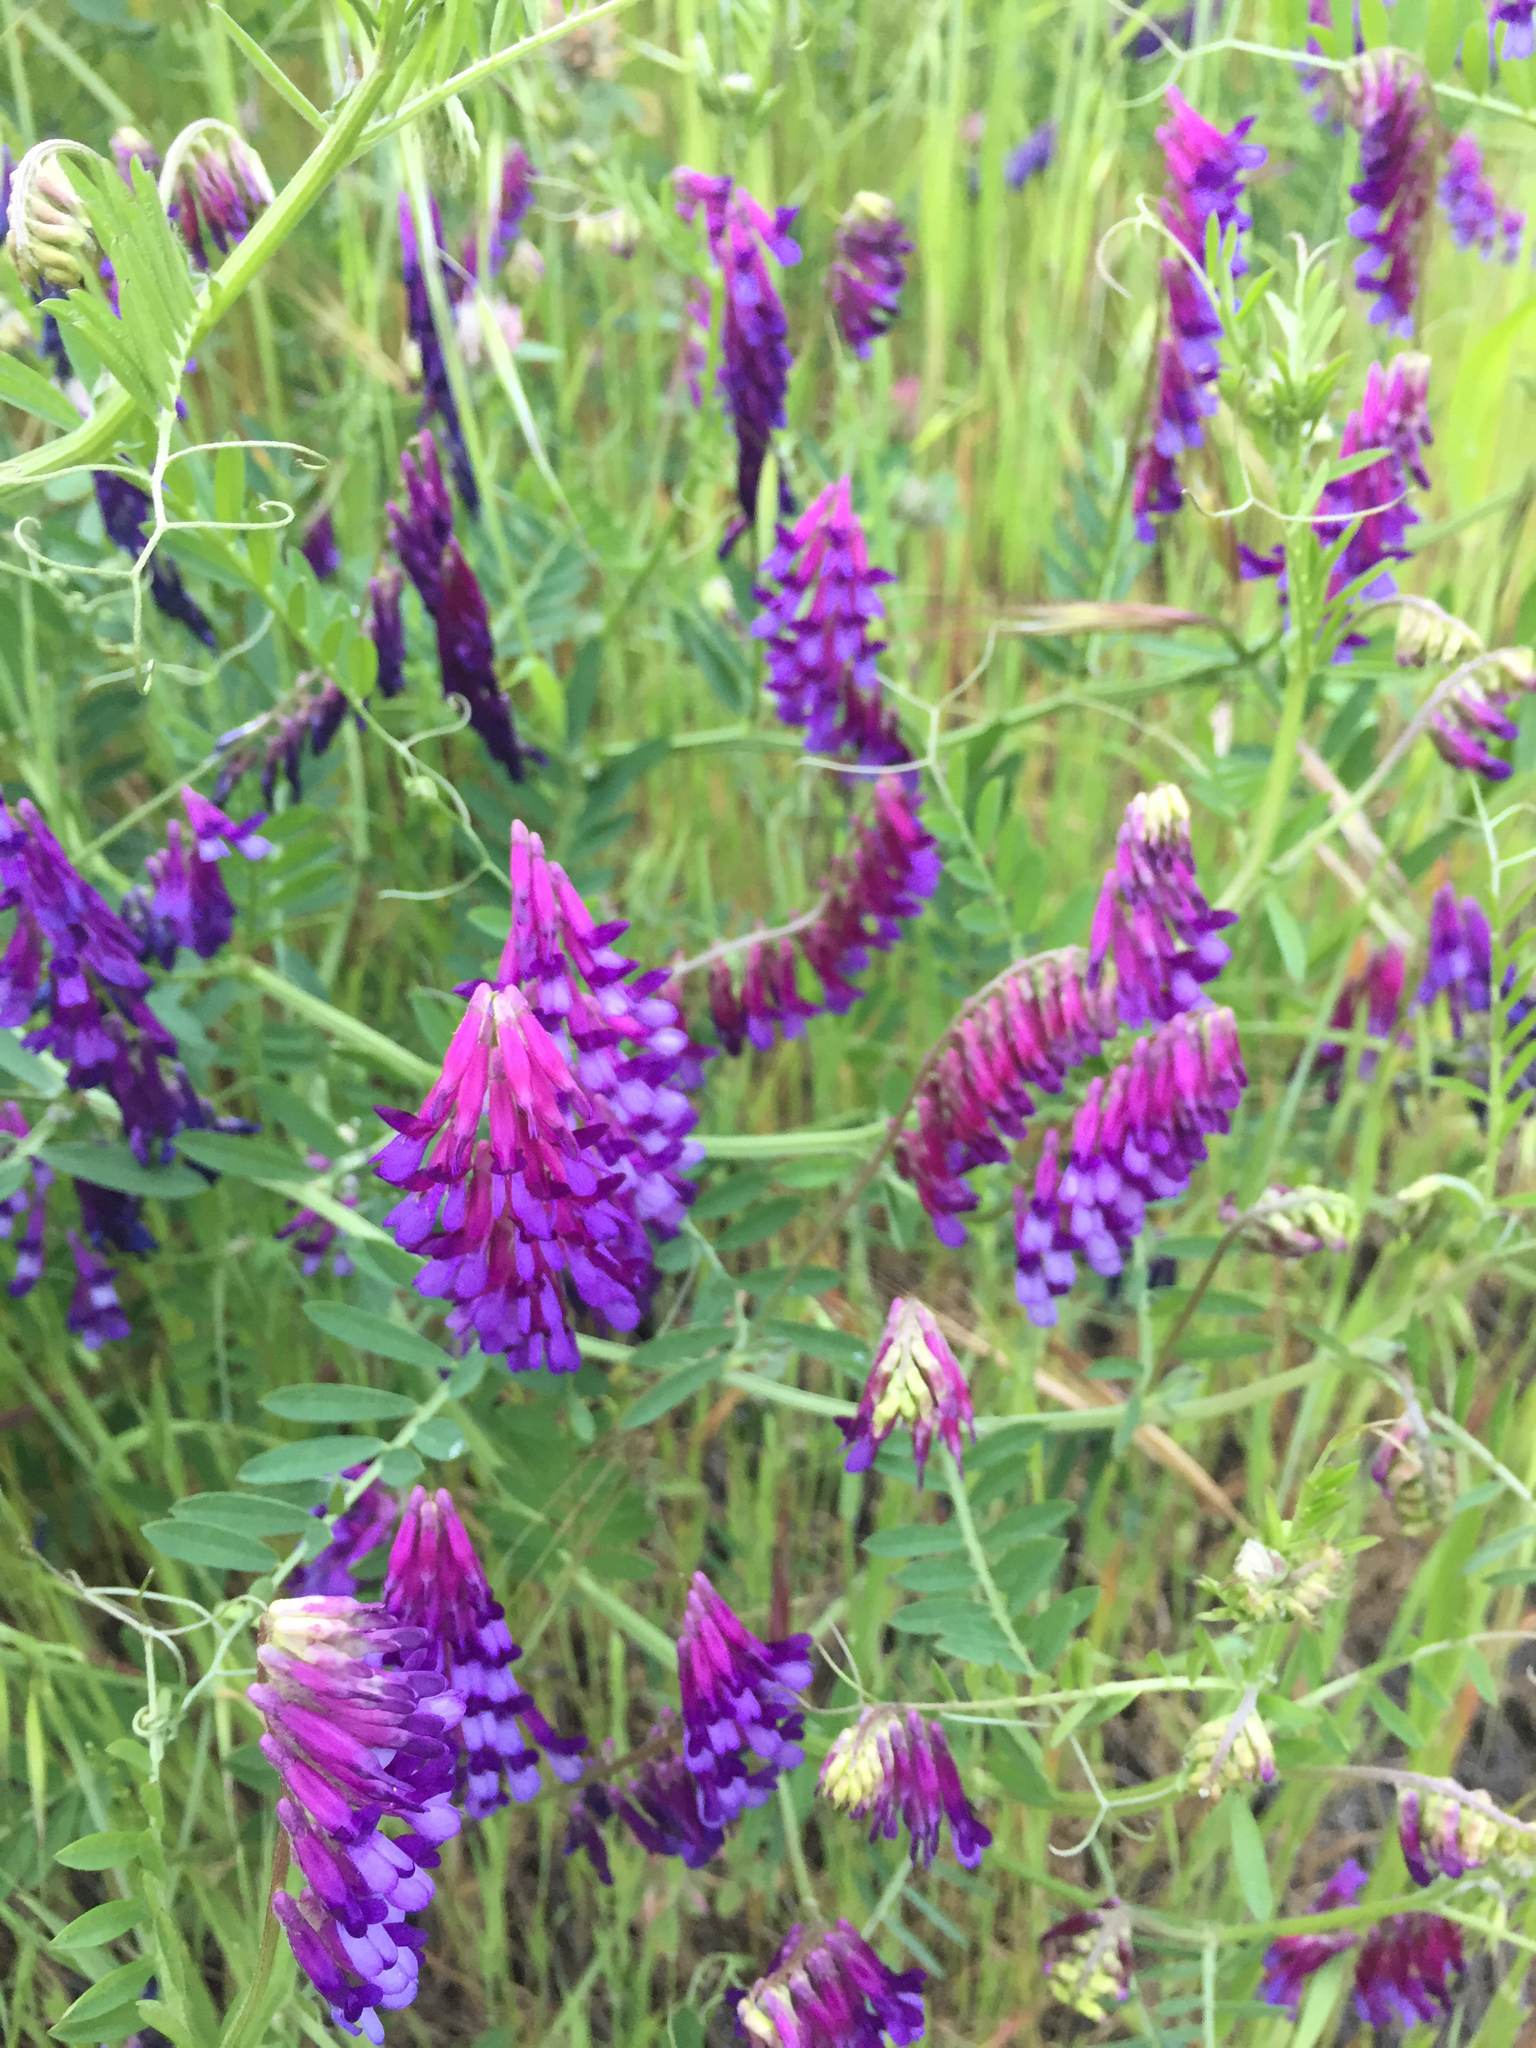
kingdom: Plantae
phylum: Tracheophyta
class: Magnoliopsida
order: Fabales
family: Fabaceae
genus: Vicia
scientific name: Vicia villosa
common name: Fodder vetch
